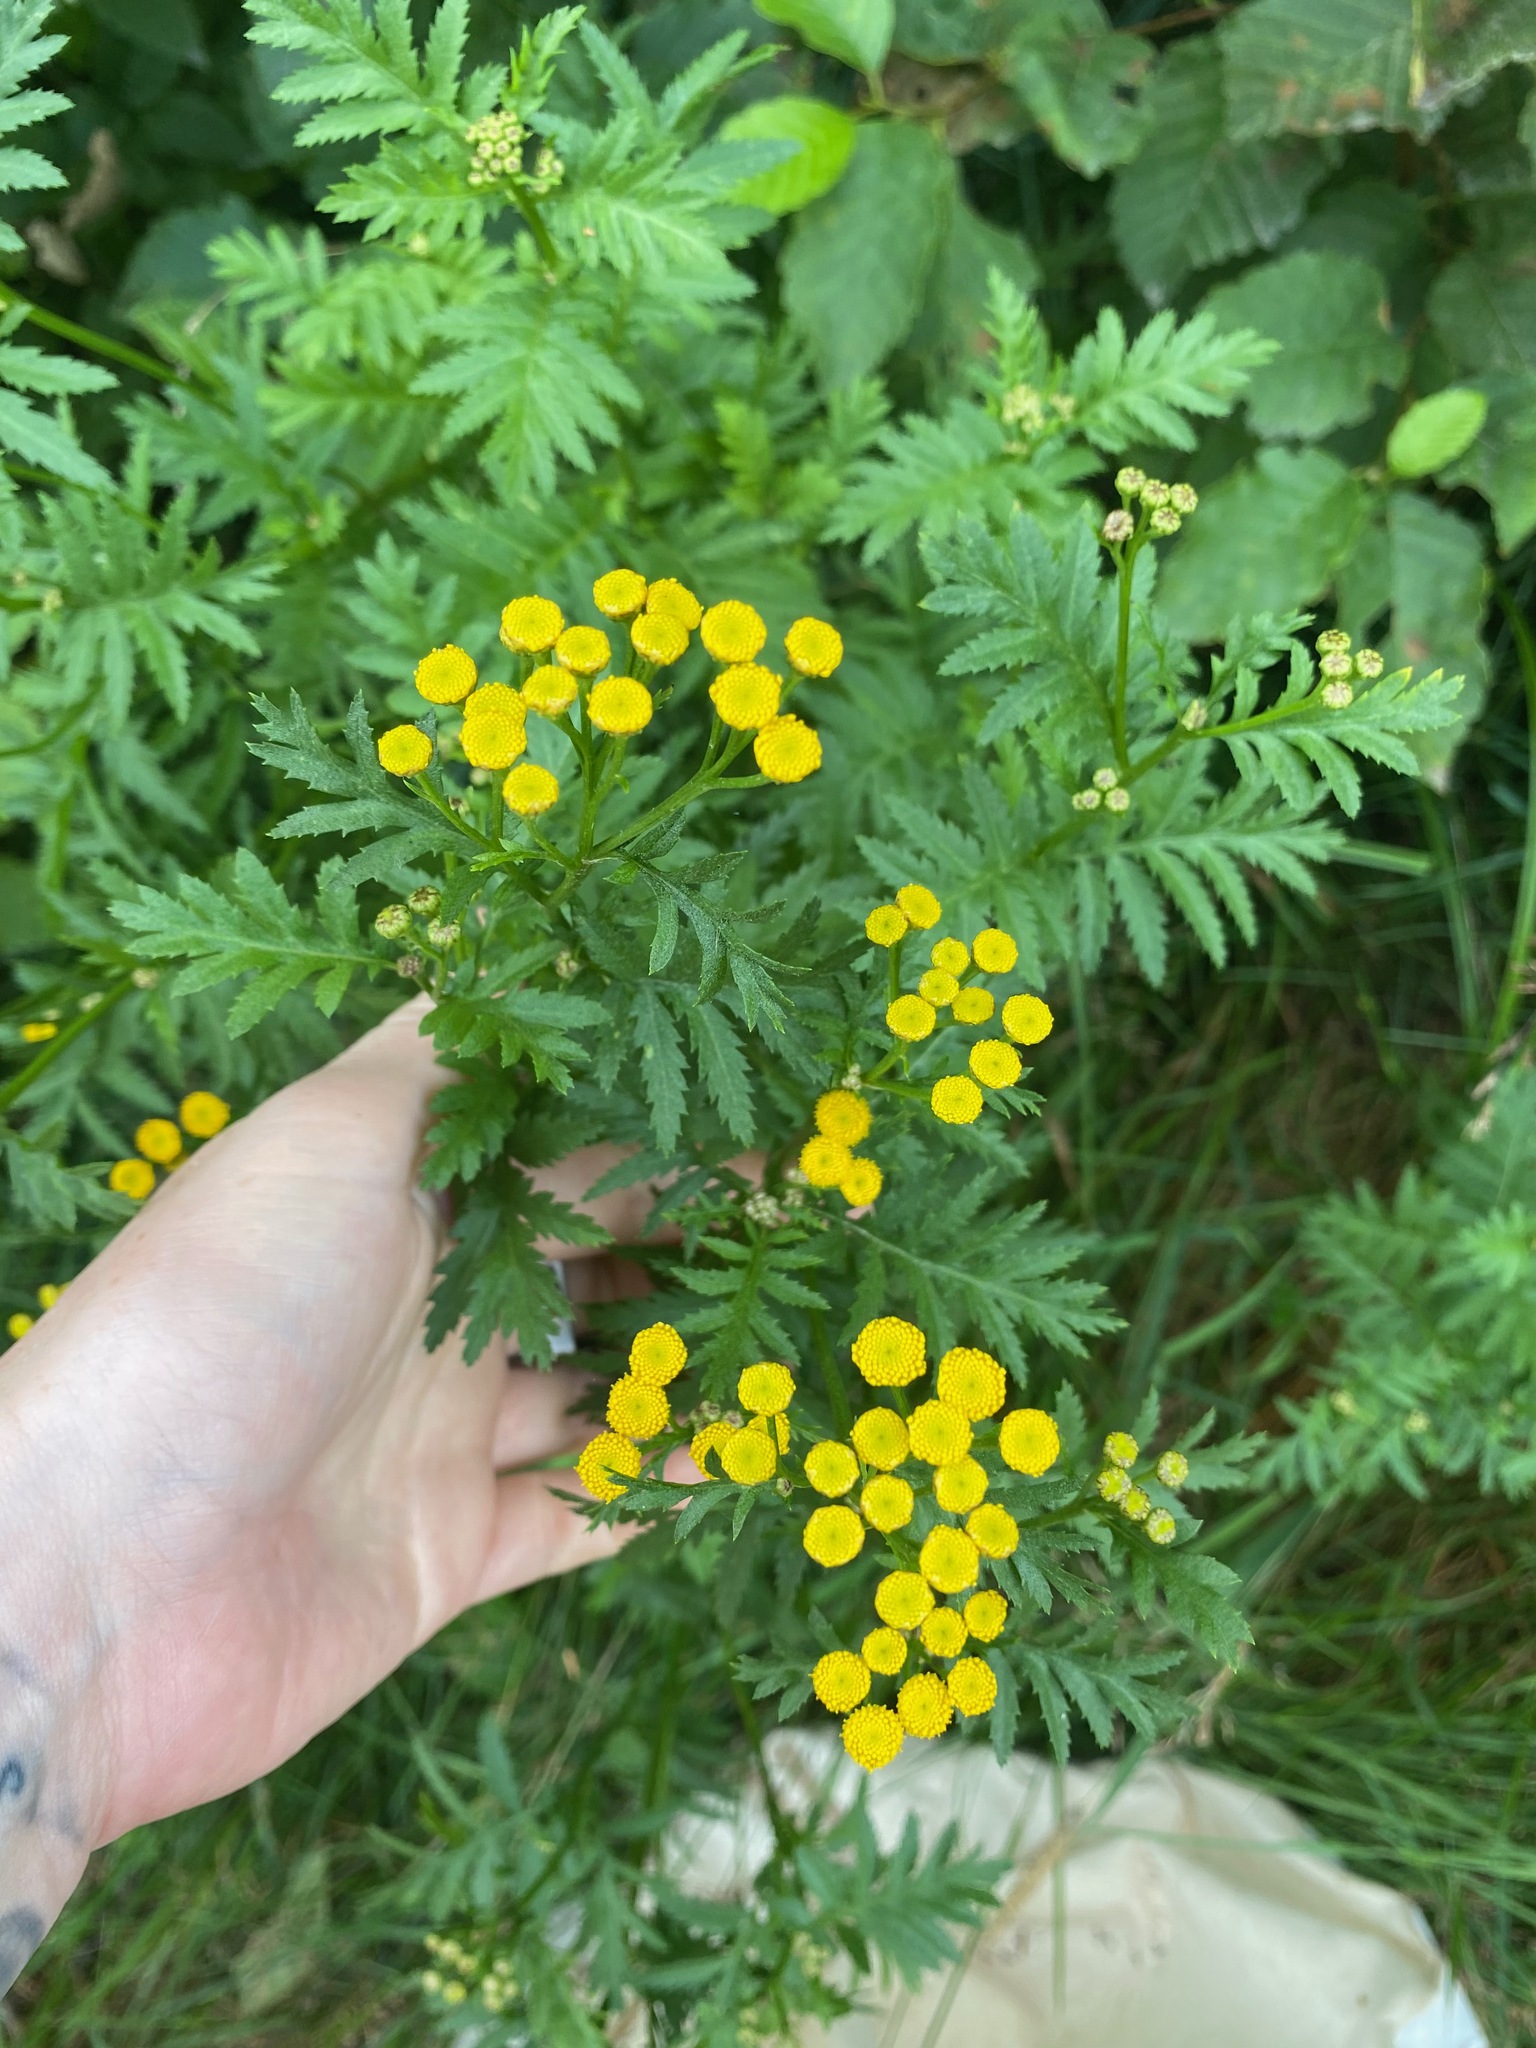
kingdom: Plantae
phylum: Tracheophyta
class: Magnoliopsida
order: Asterales
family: Asteraceae
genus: Tanacetum
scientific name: Tanacetum vulgare
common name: Common tansy
